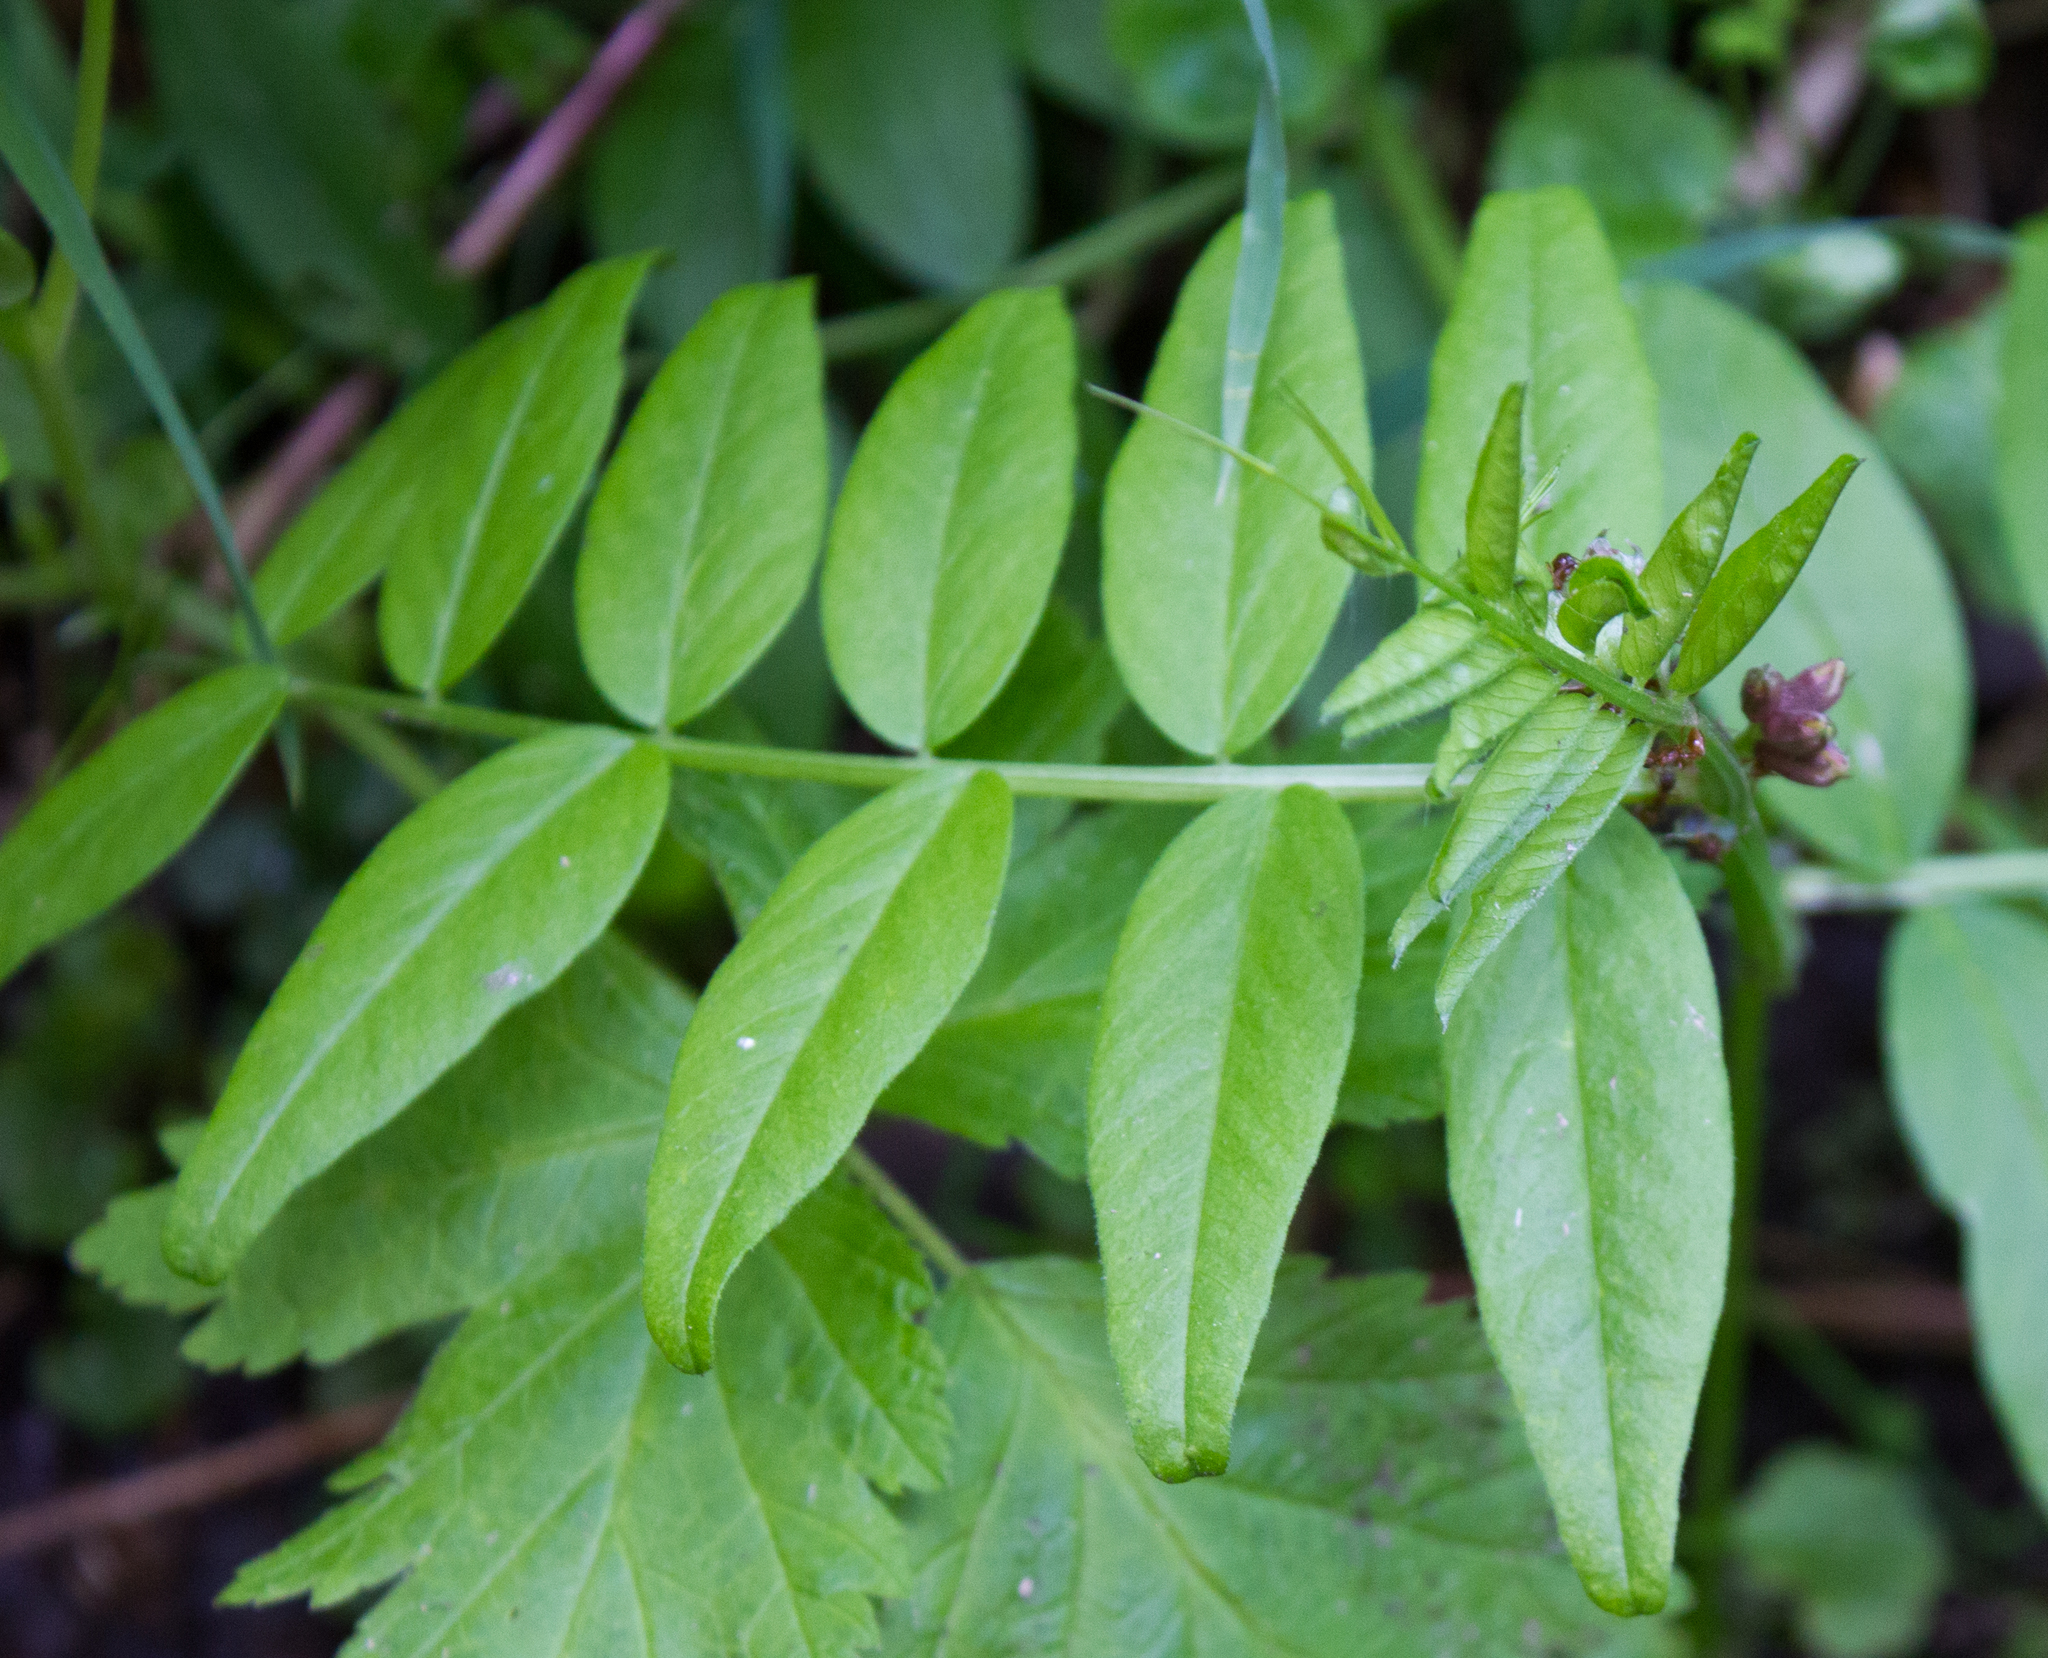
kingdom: Plantae
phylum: Tracheophyta
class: Magnoliopsida
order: Fabales
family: Fabaceae
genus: Vicia
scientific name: Vicia sepium
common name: Bush vetch
